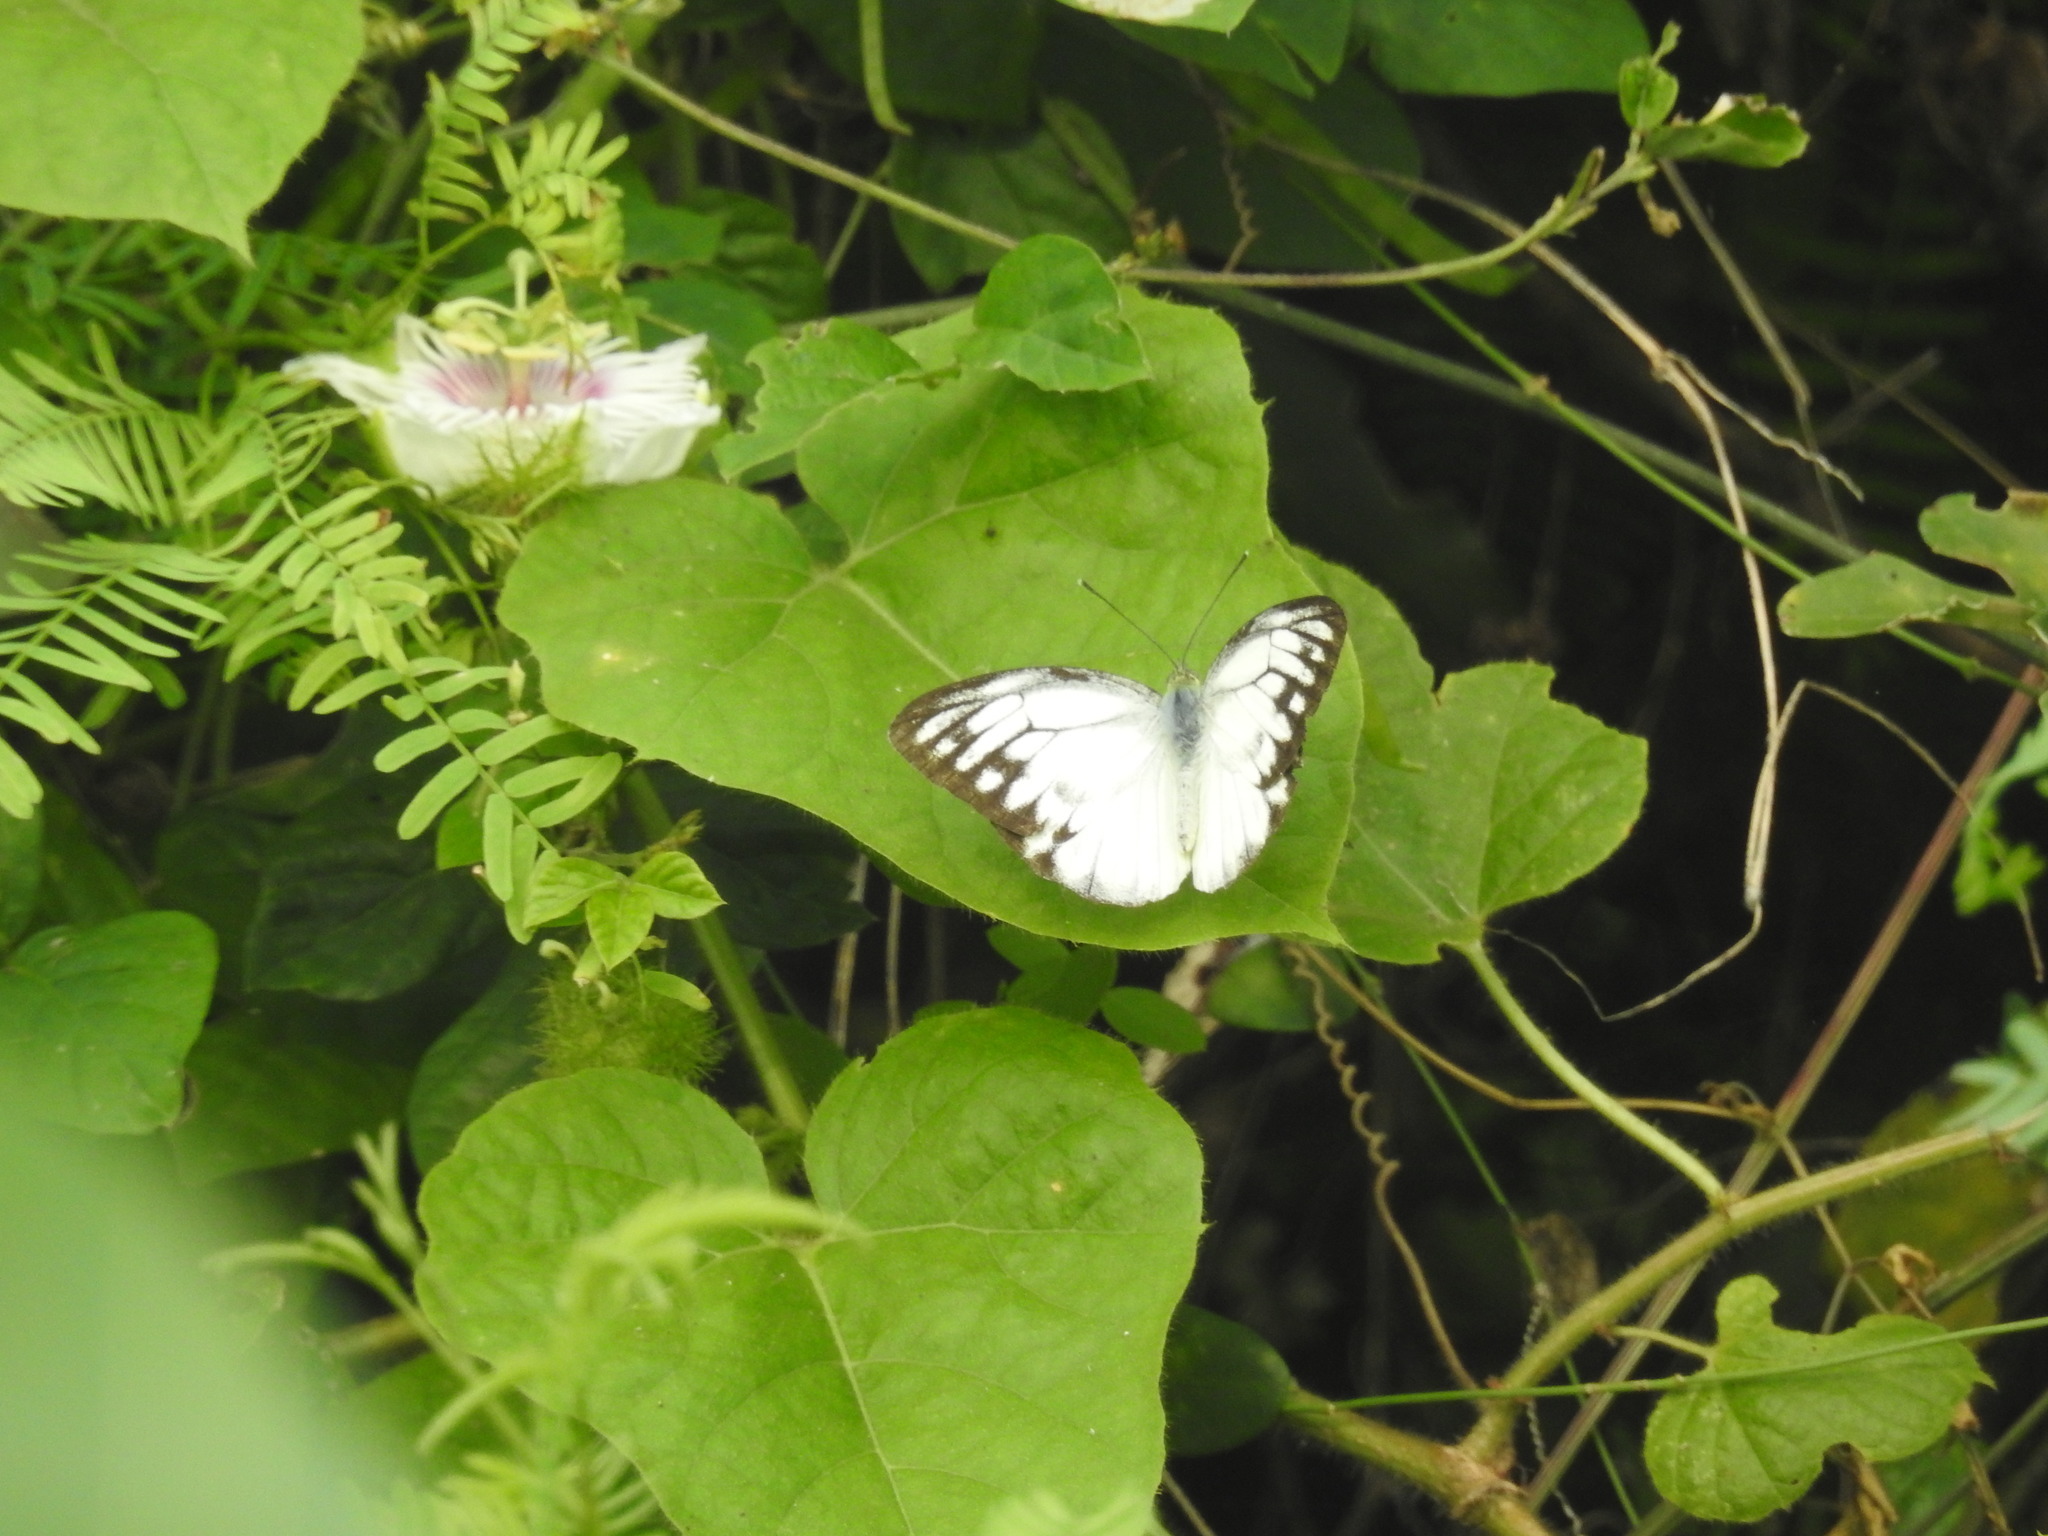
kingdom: Animalia
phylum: Arthropoda
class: Insecta
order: Lepidoptera
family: Pieridae
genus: Belenois
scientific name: Belenois aurota
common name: Brown-veined white
